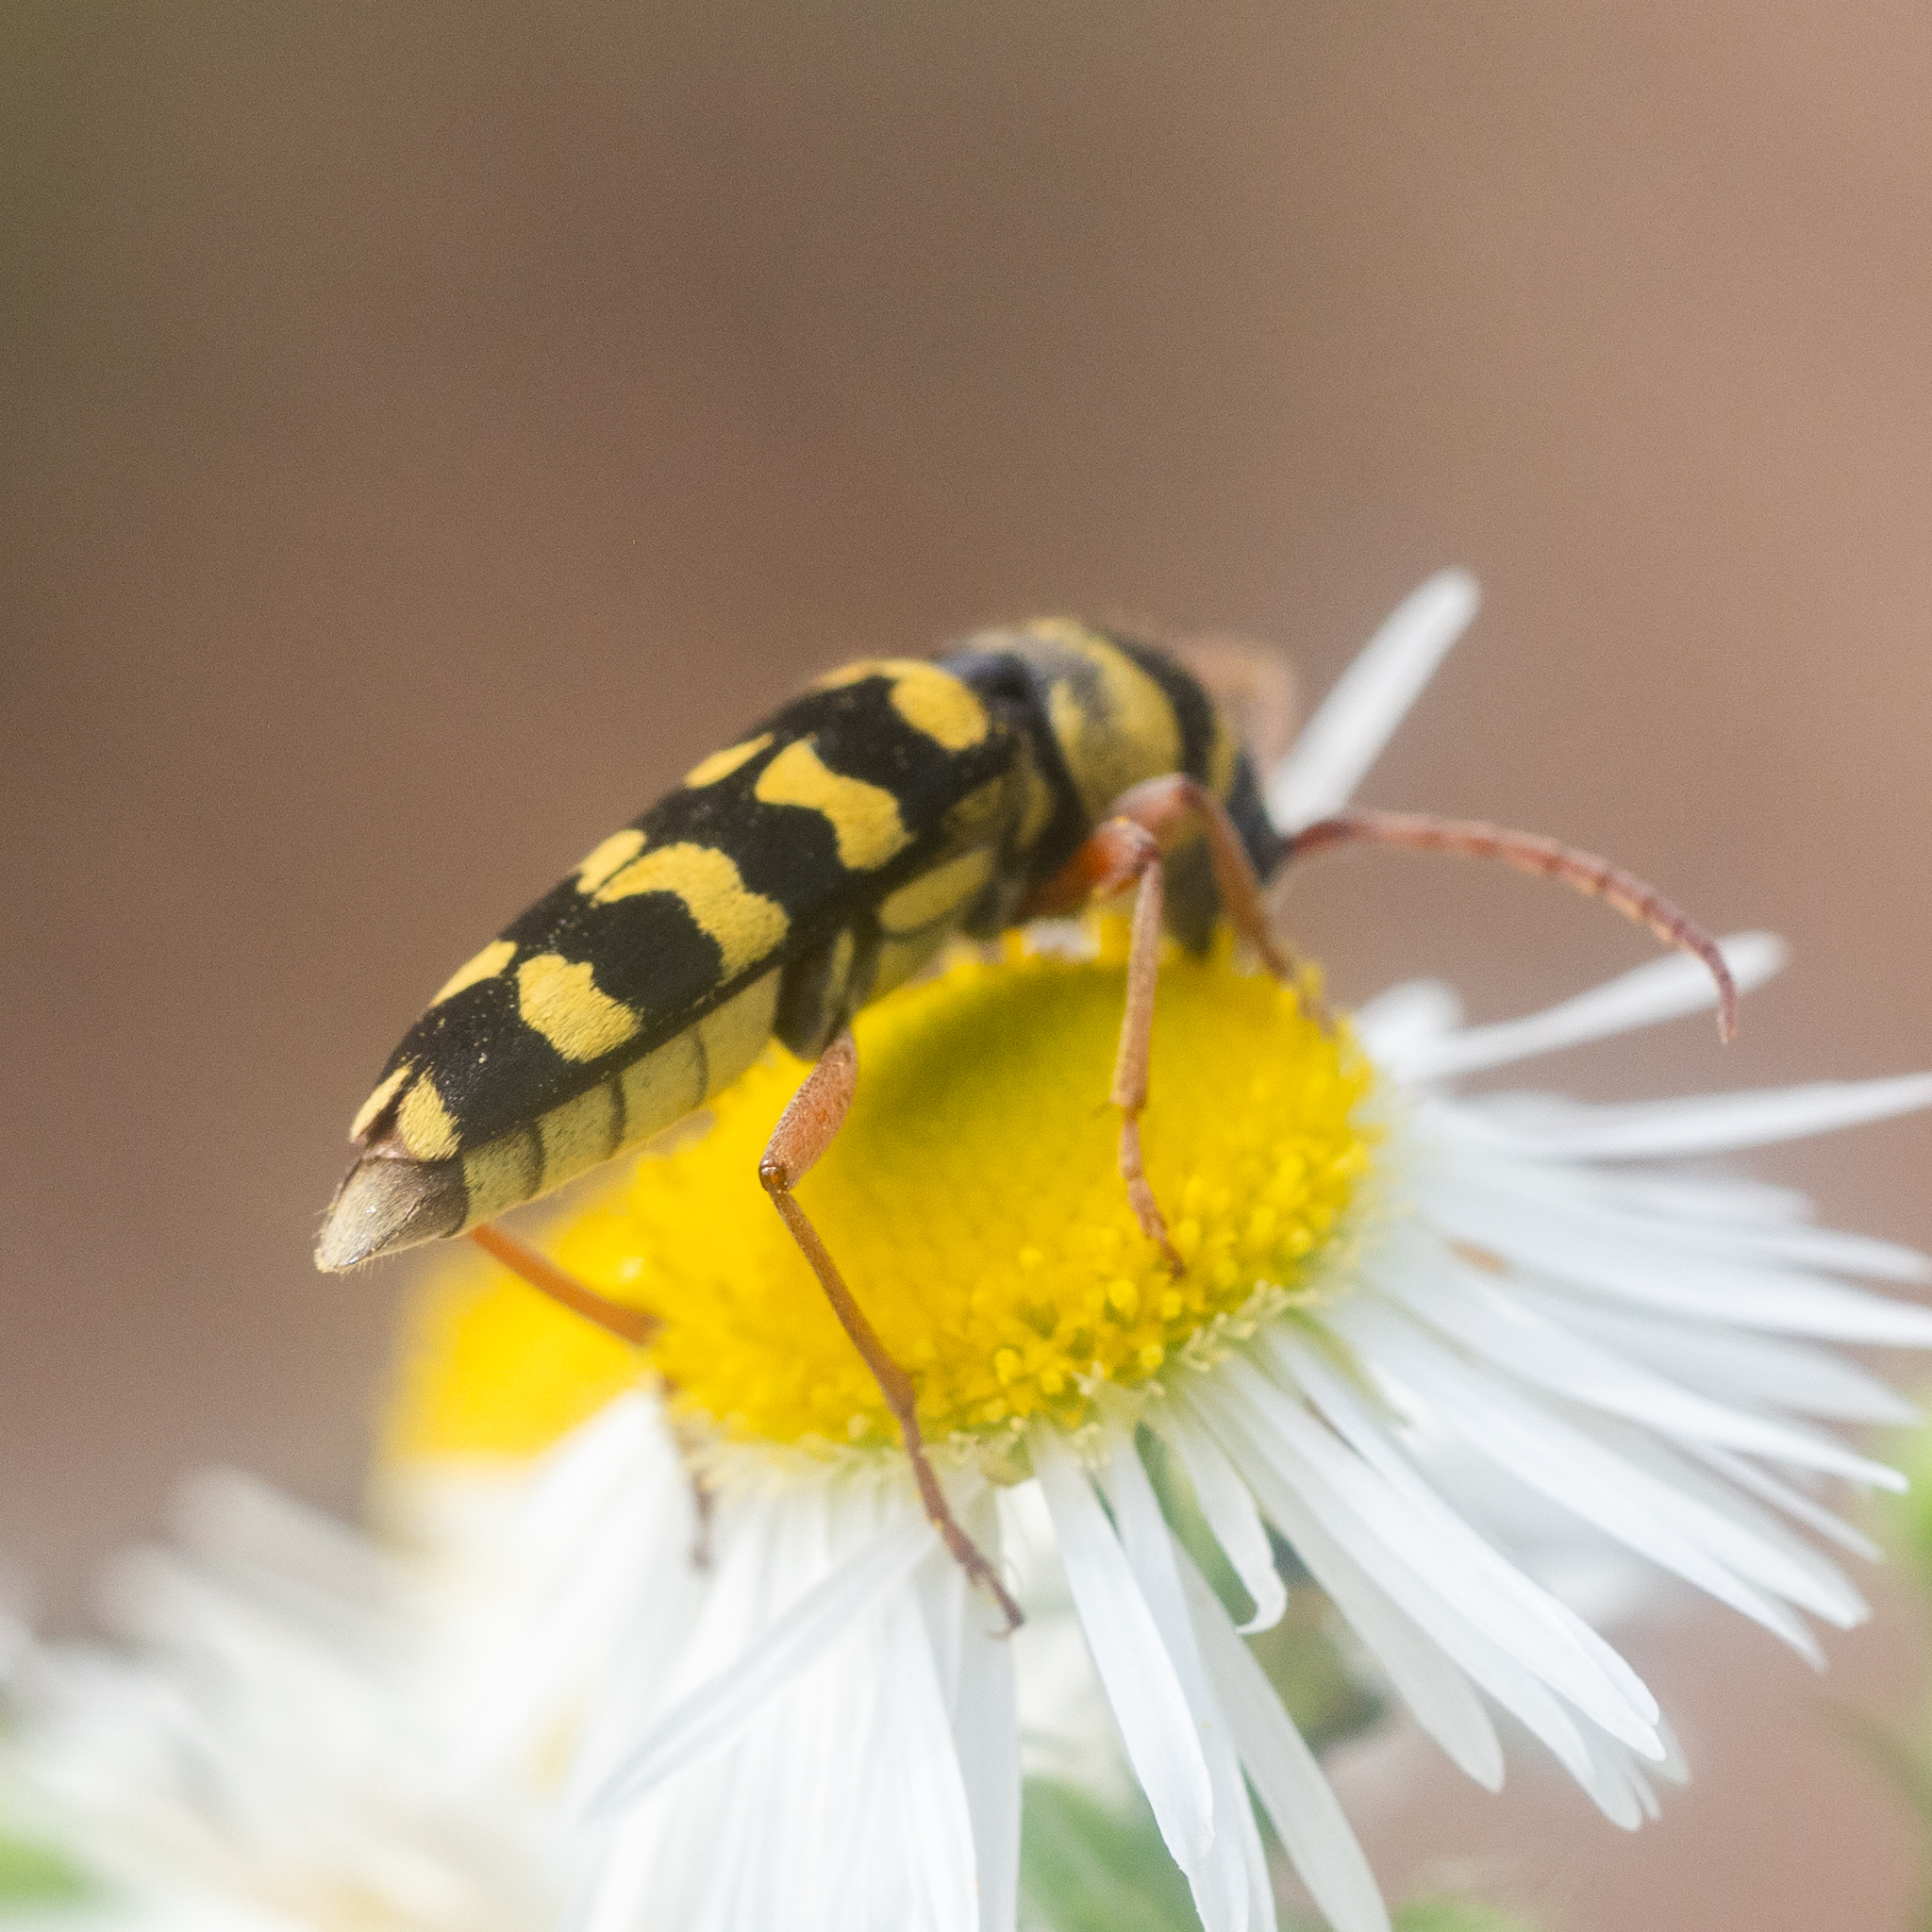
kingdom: Animalia
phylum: Arthropoda
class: Insecta
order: Coleoptera
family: Cerambycidae
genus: Plagionotus
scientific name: Plagionotus floralis
